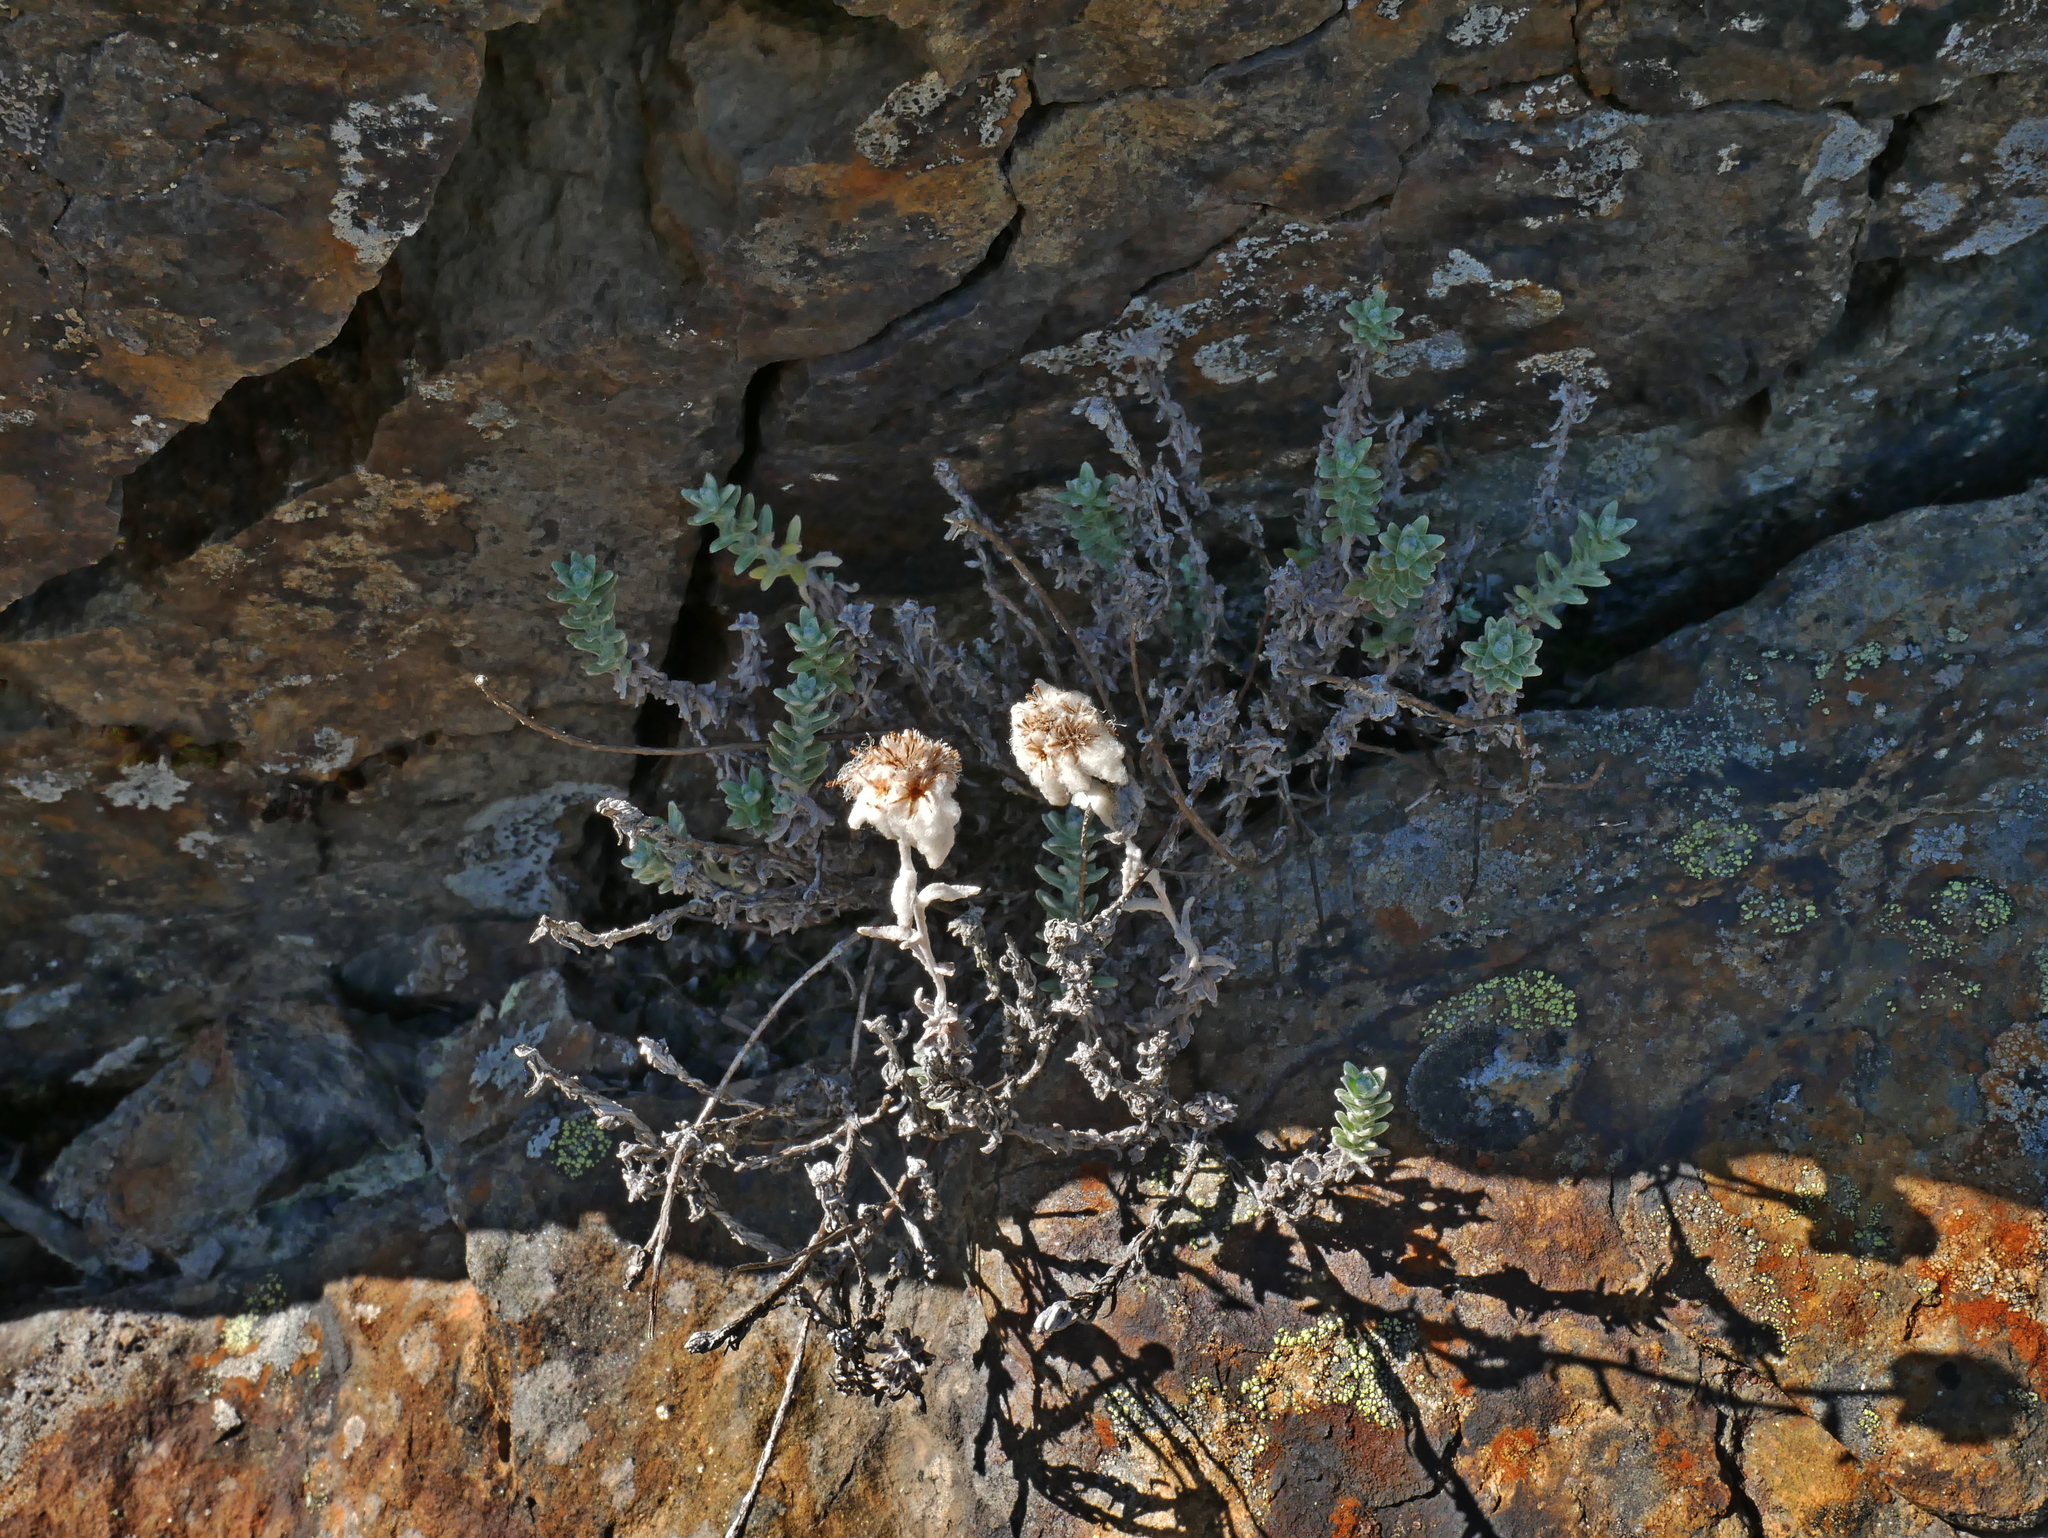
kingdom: Plantae
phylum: Tracheophyta
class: Magnoliopsida
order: Asterales
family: Asteraceae
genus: Leontopodium
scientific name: Leontopodium microphyllum
